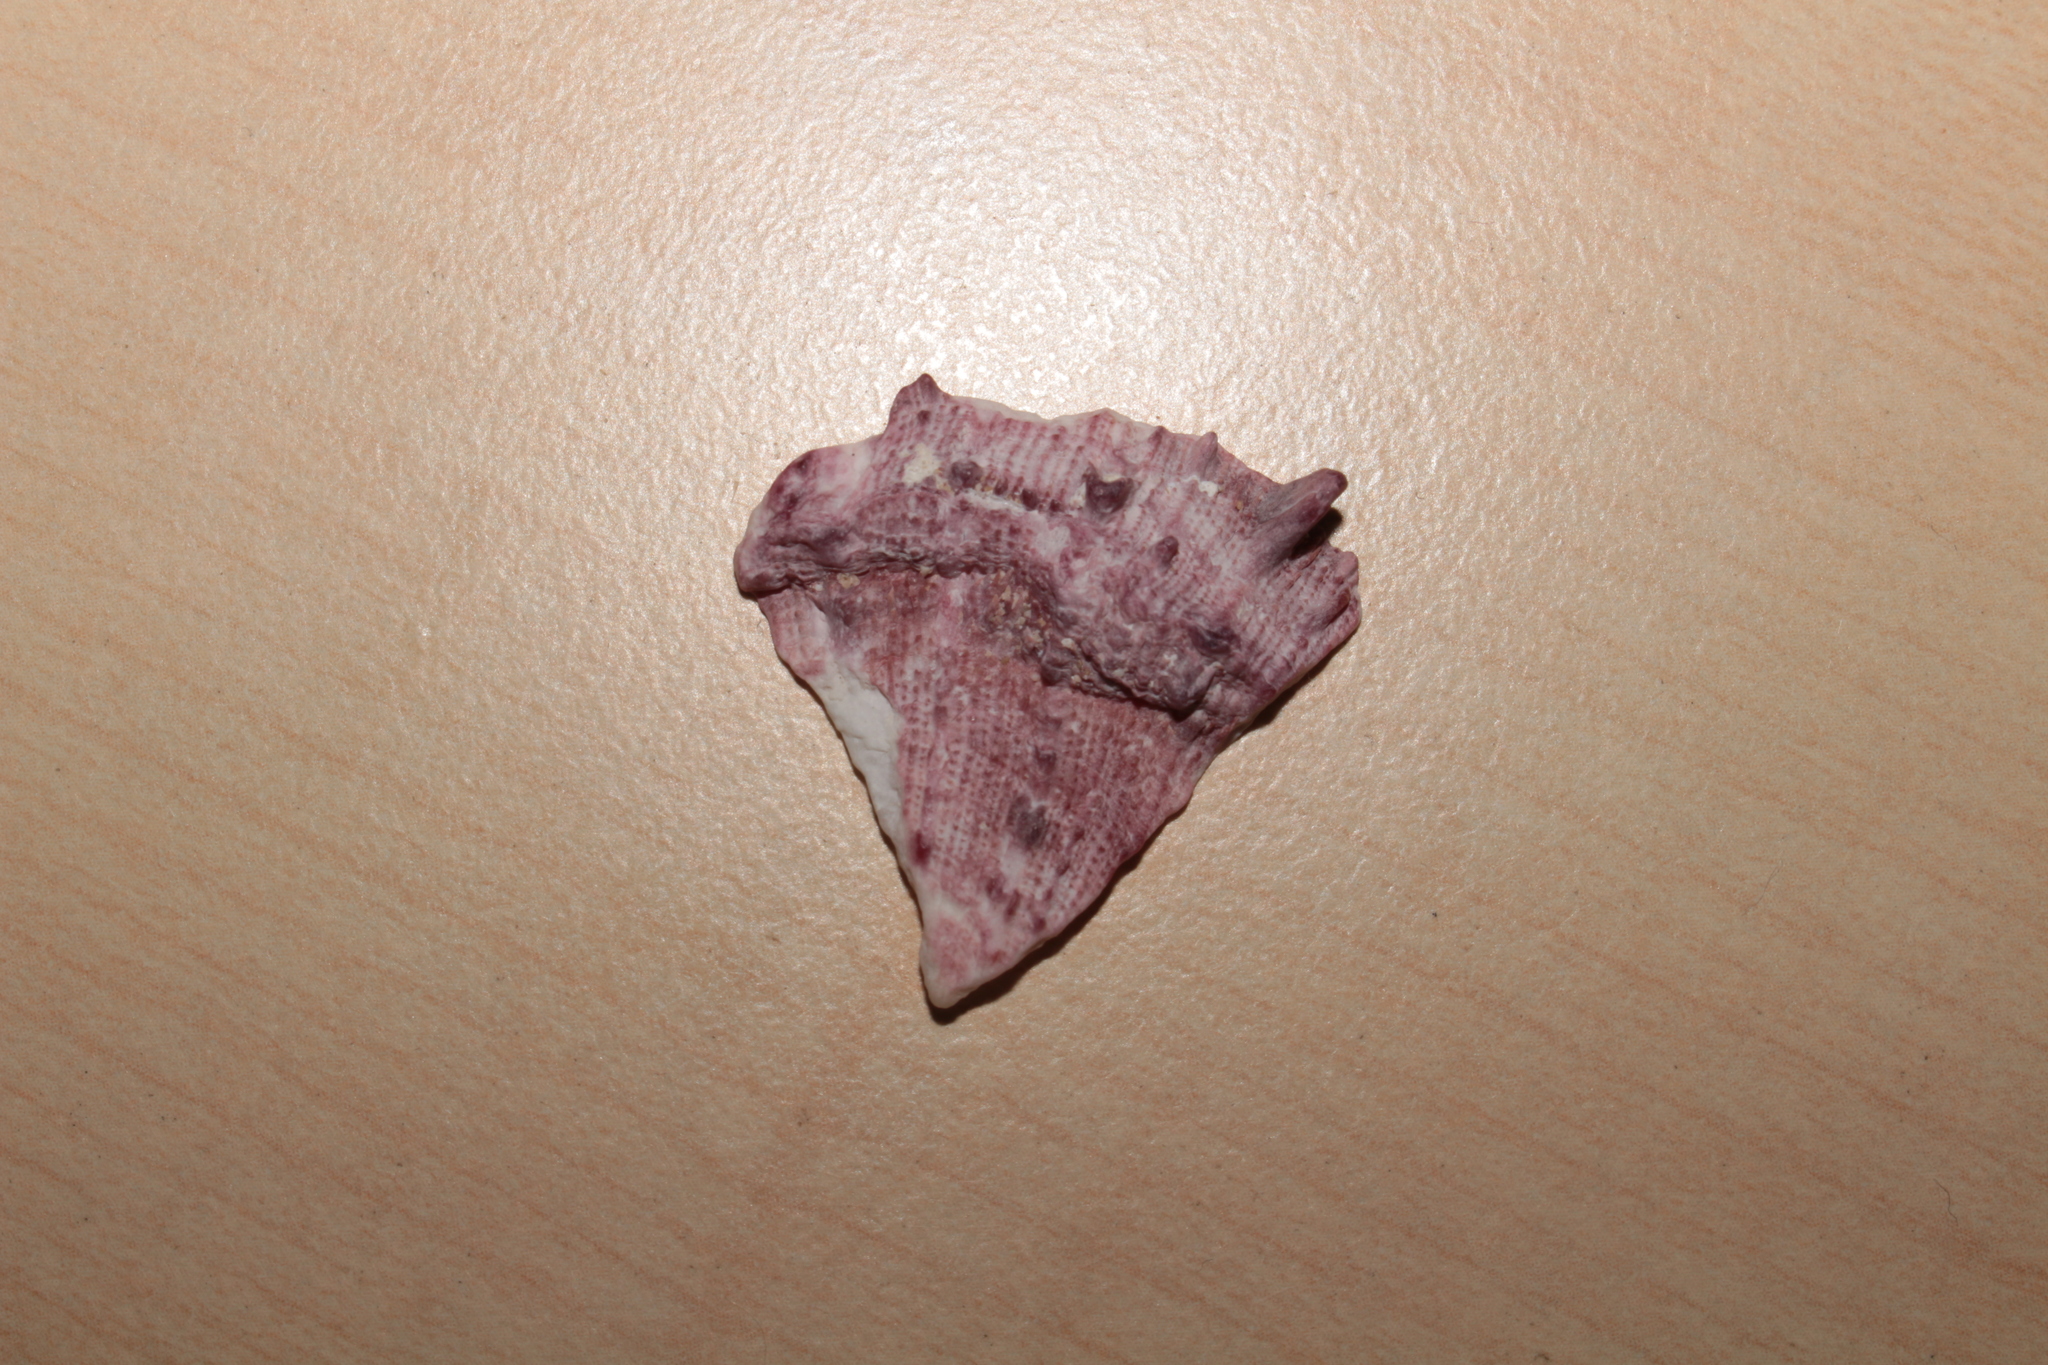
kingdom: Animalia
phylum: Mollusca
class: Bivalvia
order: Pectinida
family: Spondylidae
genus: Spondylus
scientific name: Spondylus gaederopus
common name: European thorny oyster
